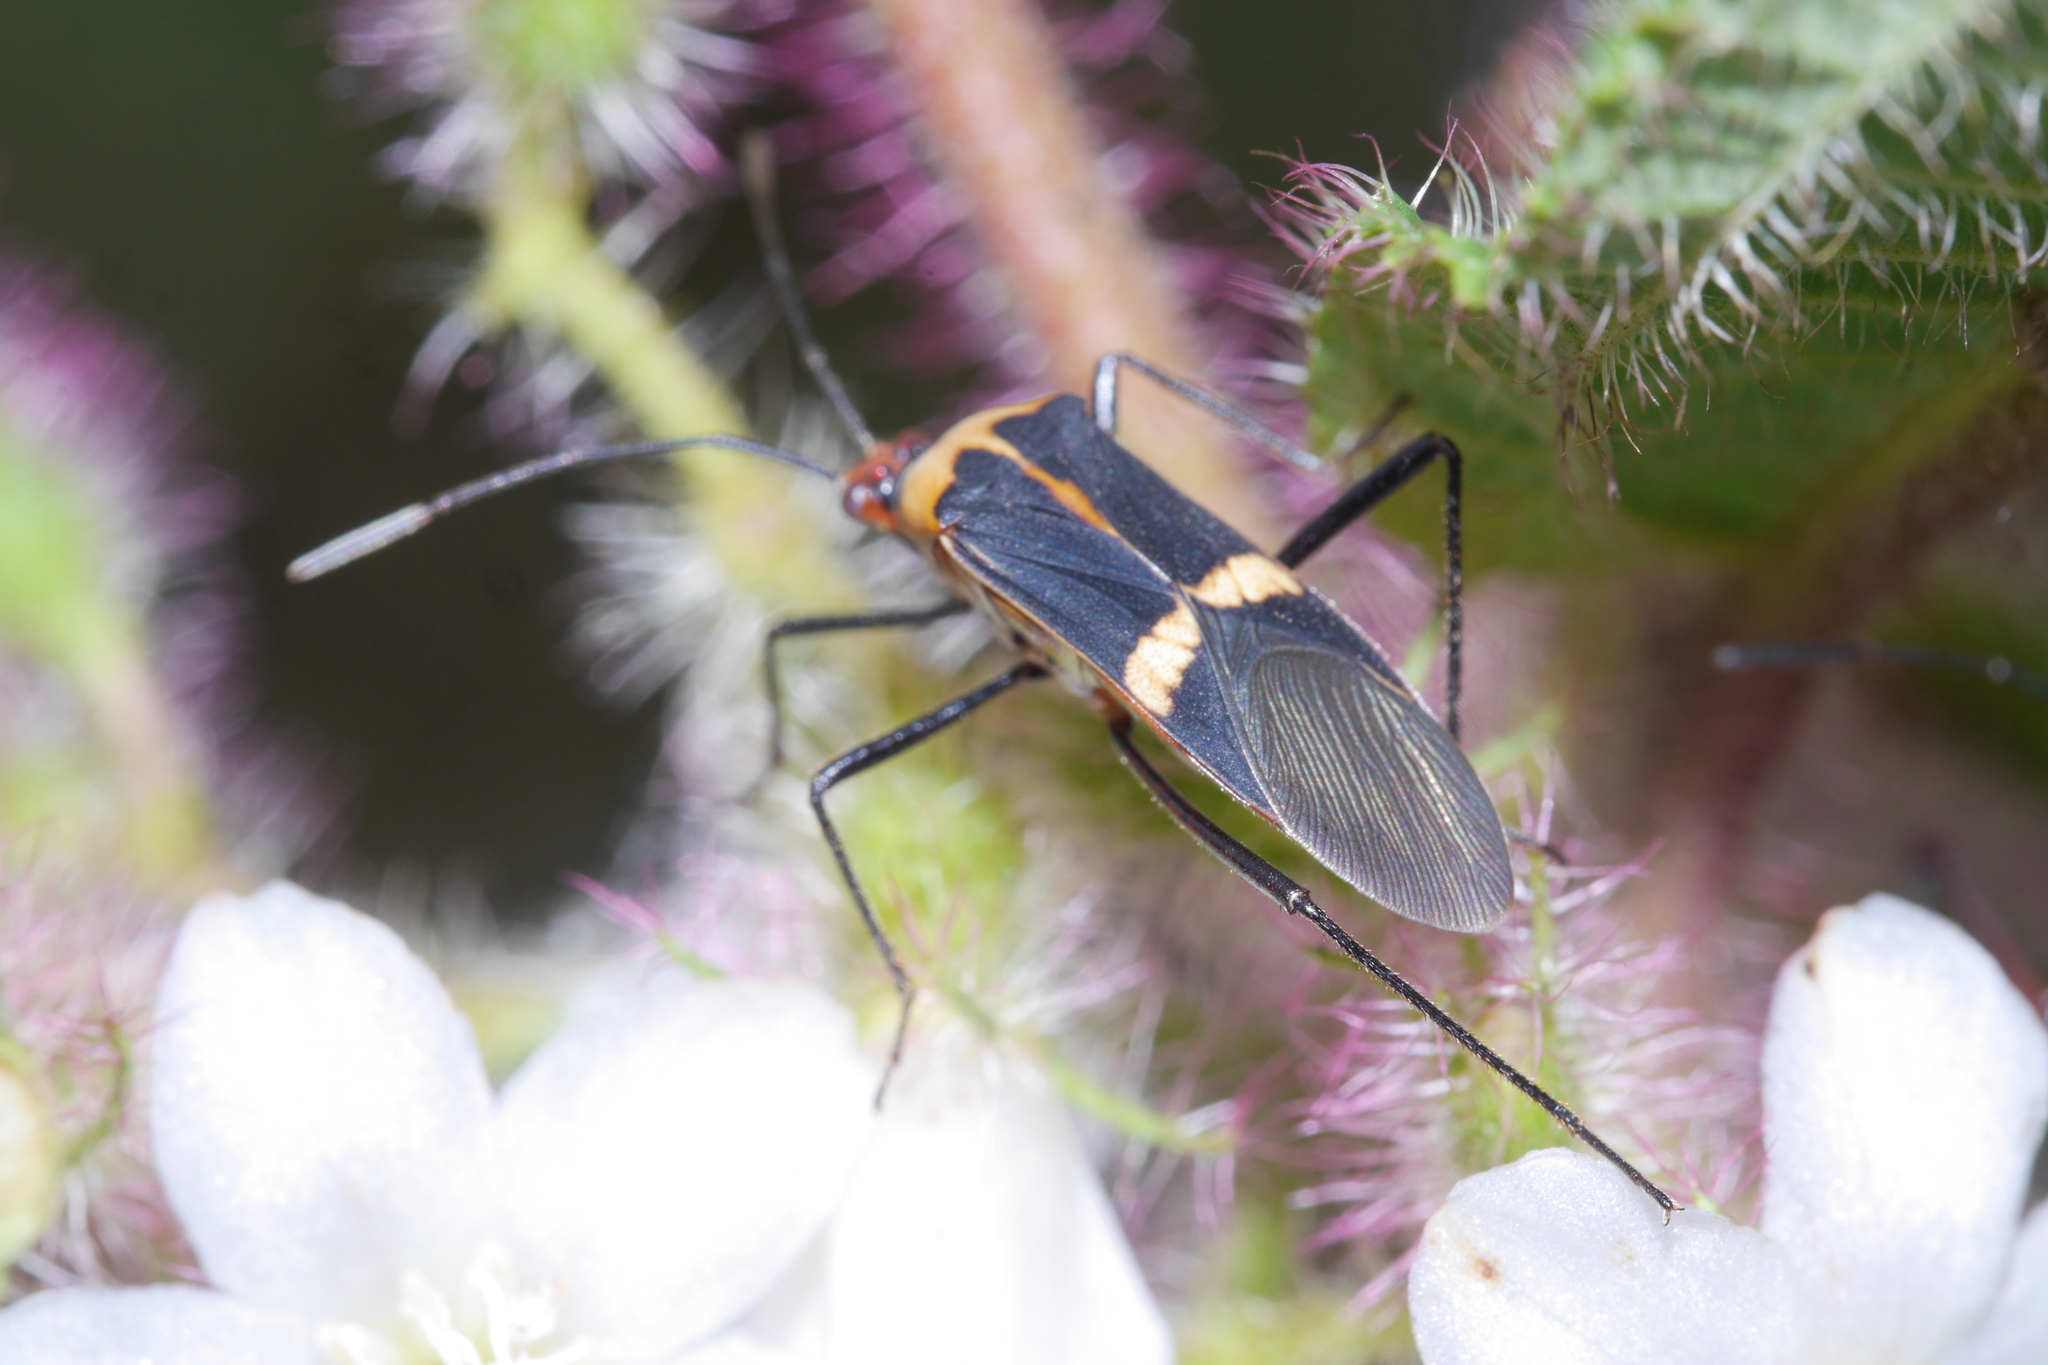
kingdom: Animalia
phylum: Arthropoda
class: Insecta
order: Hemiptera
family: Coreidae
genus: Hypselonotus
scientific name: Hypselonotus interruptus
